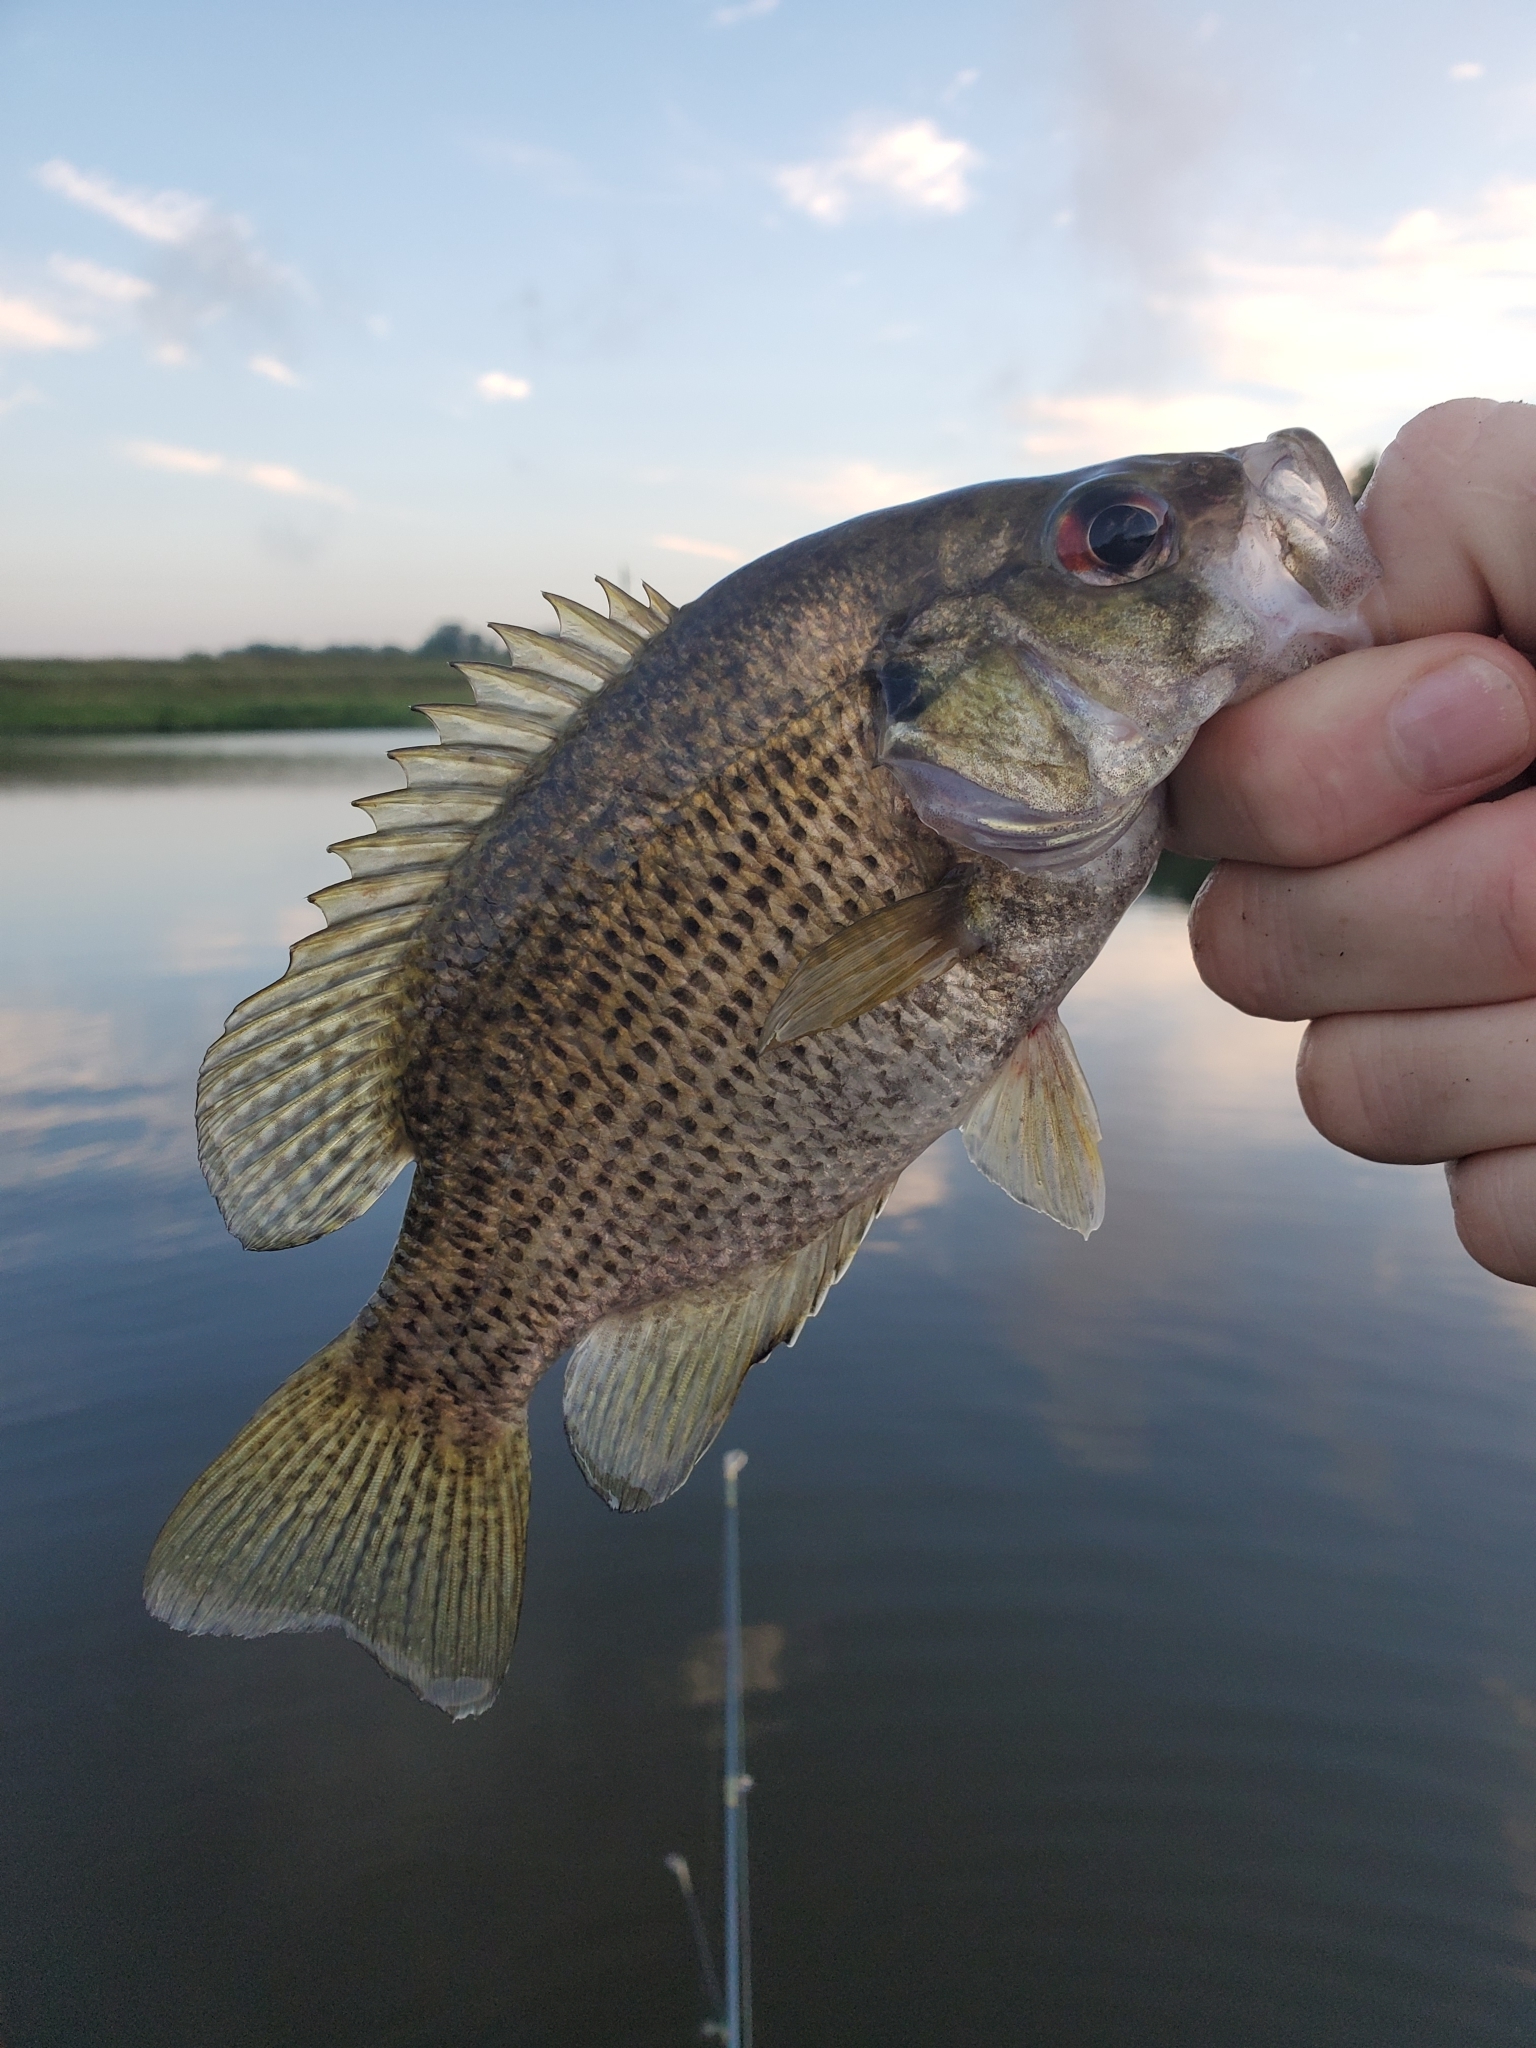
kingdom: Animalia
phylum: Chordata
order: Perciformes
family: Centrarchidae
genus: Ambloplites
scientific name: Ambloplites rupestris
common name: Rock bass
